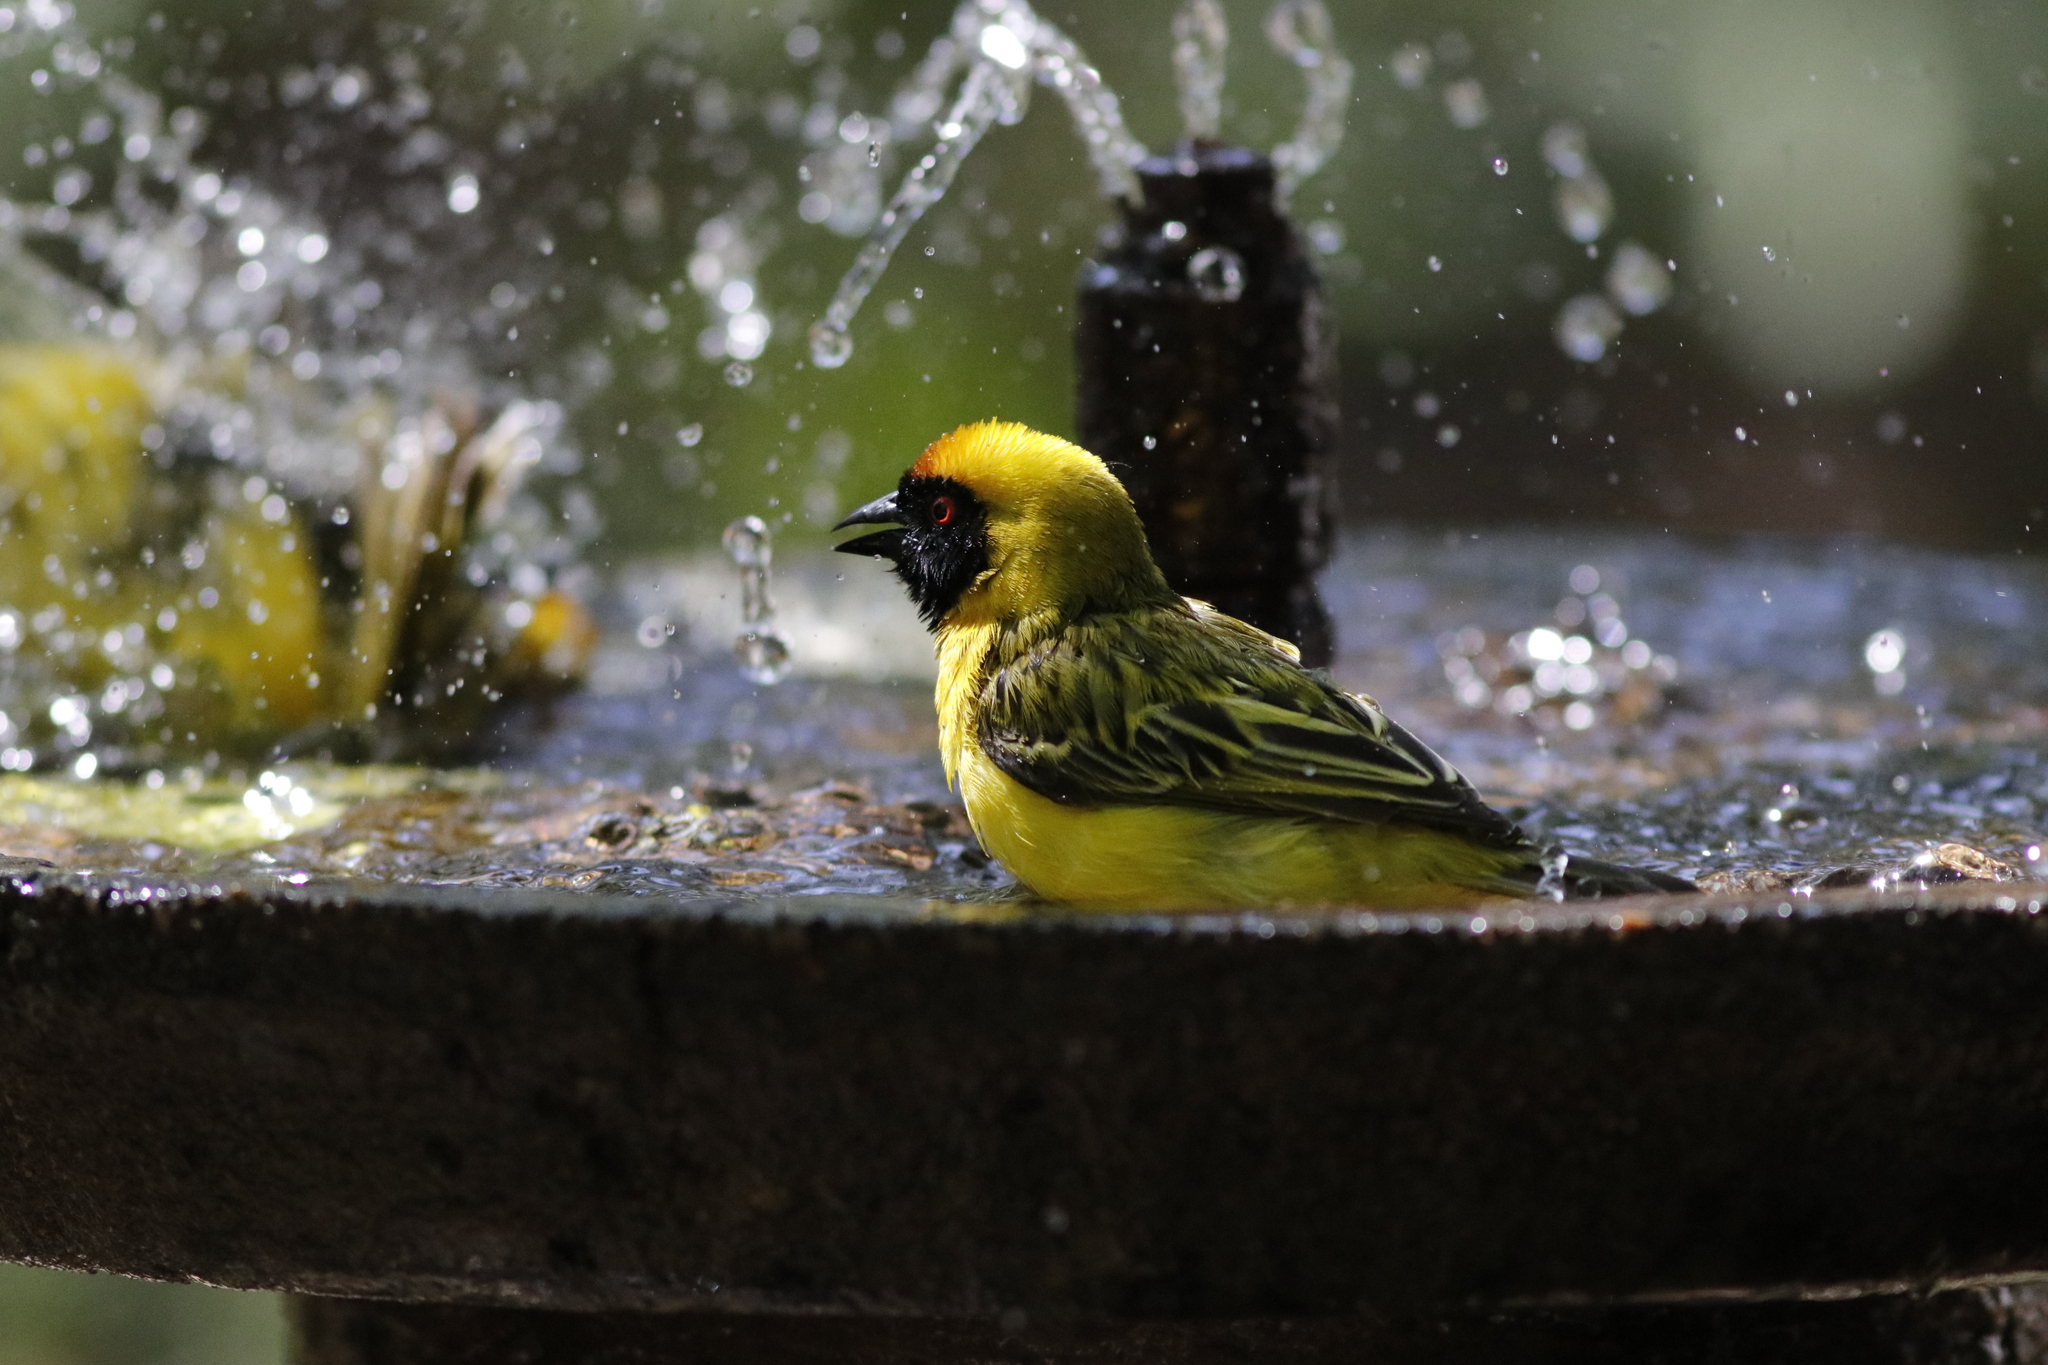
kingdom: Animalia
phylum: Chordata
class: Aves
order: Passeriformes
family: Ploceidae
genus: Ploceus
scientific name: Ploceus velatus
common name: Southern masked weaver
